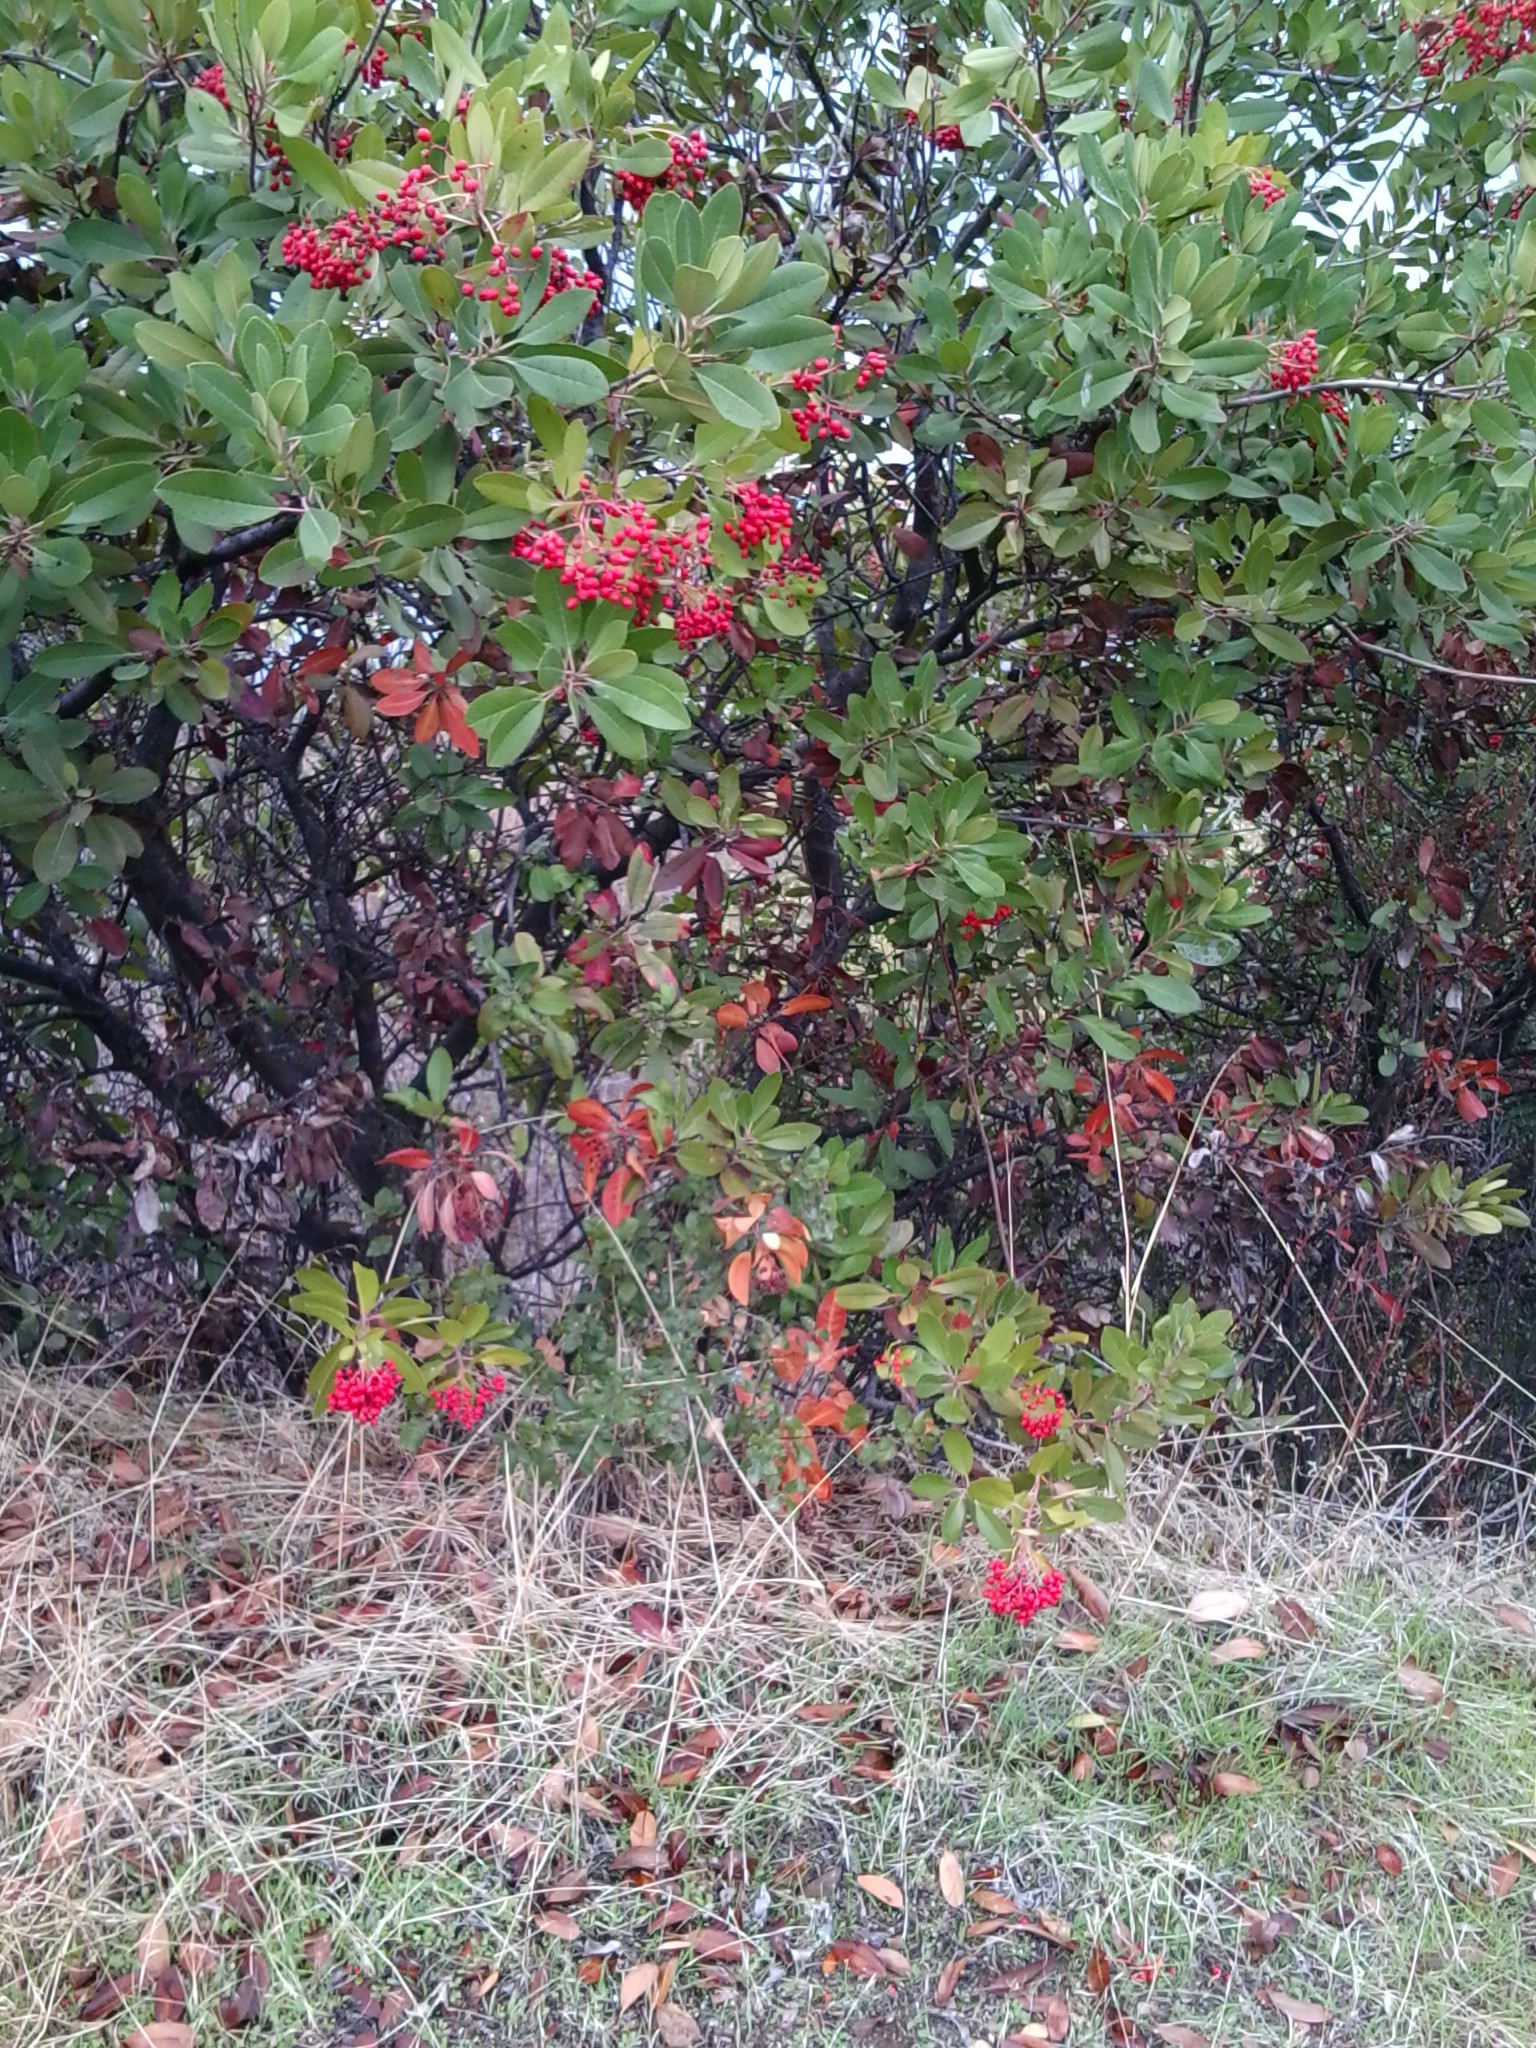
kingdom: Plantae
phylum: Tracheophyta
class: Magnoliopsida
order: Rosales
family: Rosaceae
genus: Heteromeles
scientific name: Heteromeles arbutifolia
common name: California-holly
